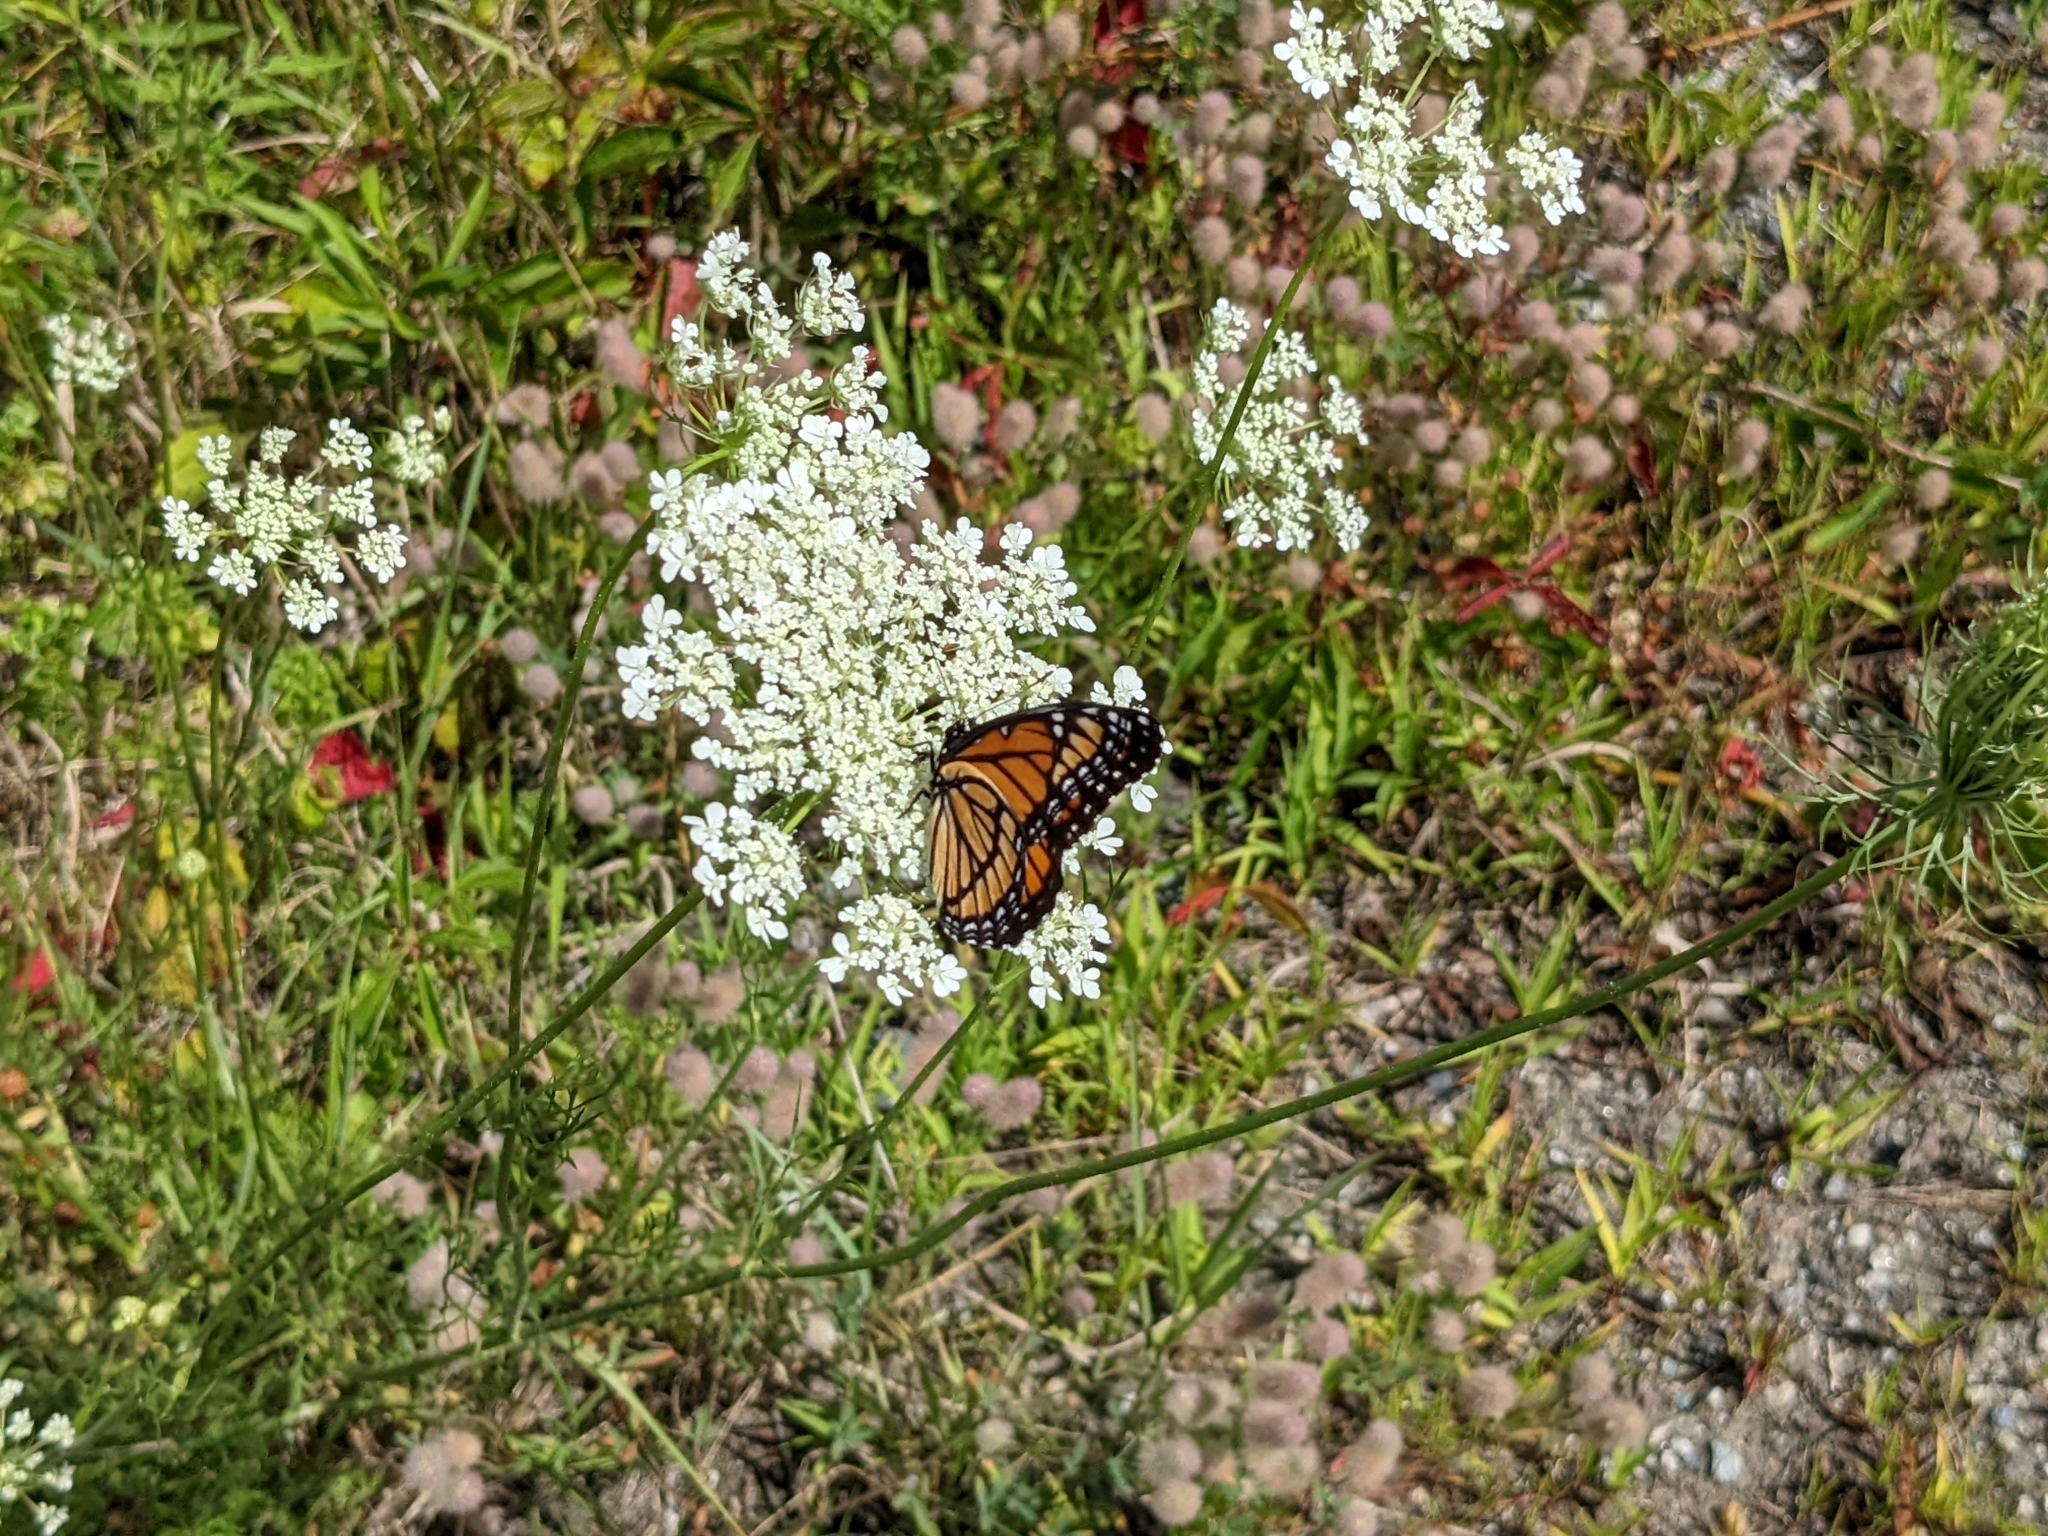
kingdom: Animalia
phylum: Arthropoda
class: Insecta
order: Lepidoptera
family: Nymphalidae
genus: Limenitis
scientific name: Limenitis archippus
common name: Viceroy
